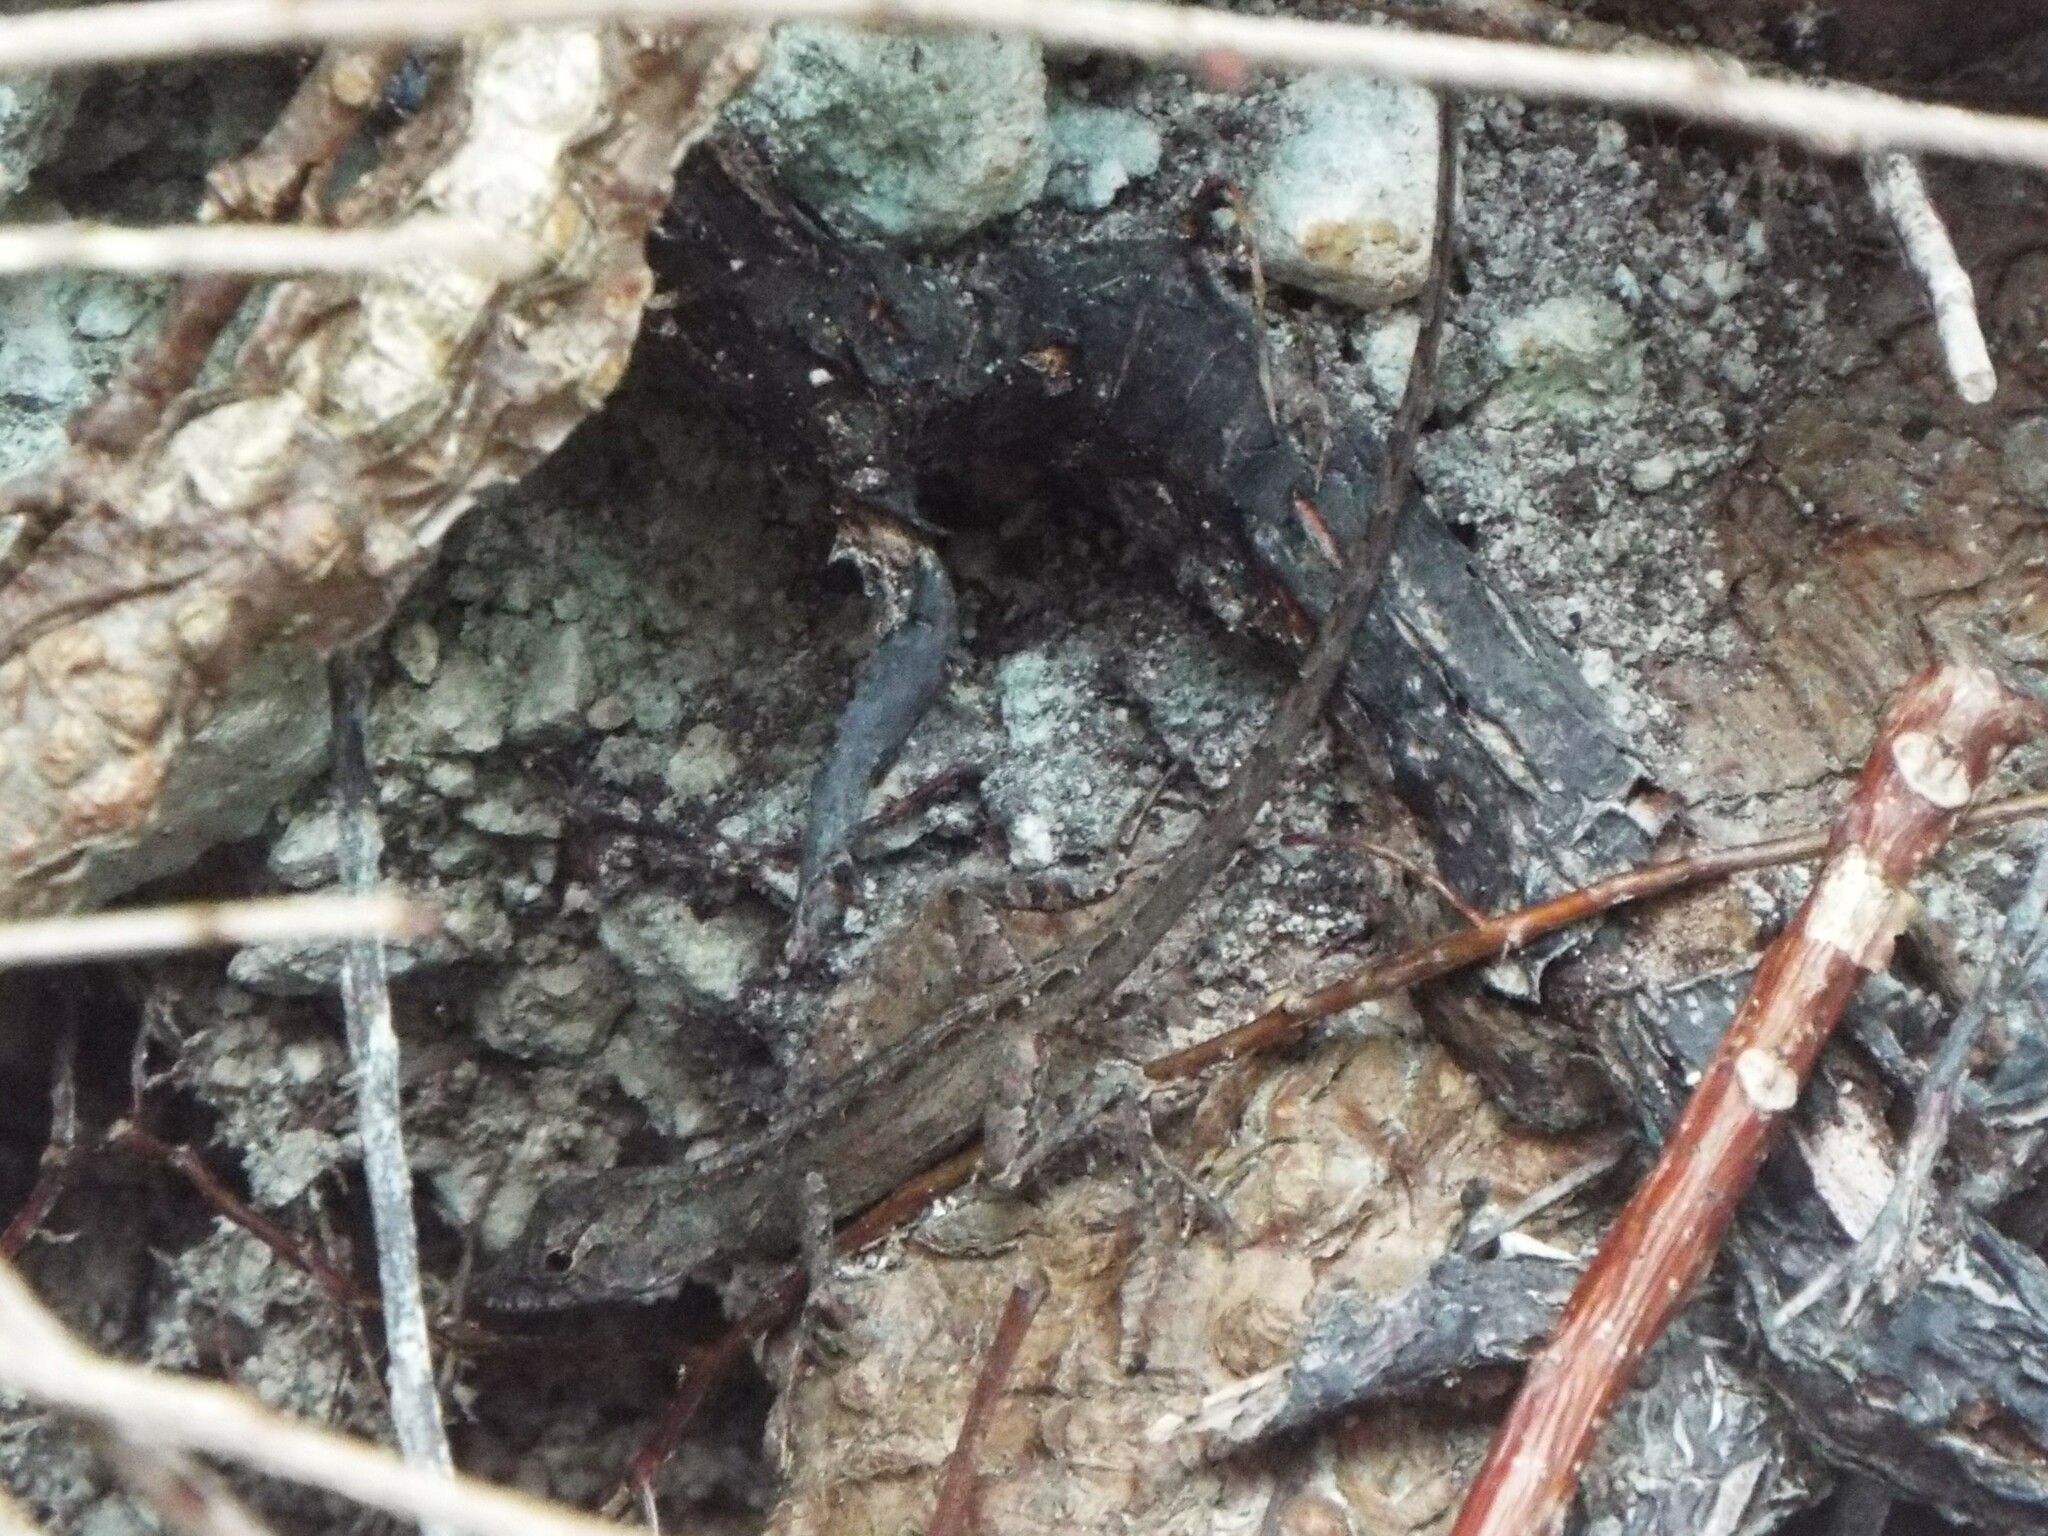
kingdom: Animalia
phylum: Chordata
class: Squamata
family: Dactyloidae
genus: Anolis
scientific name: Anolis sagrei
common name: Brown anole
